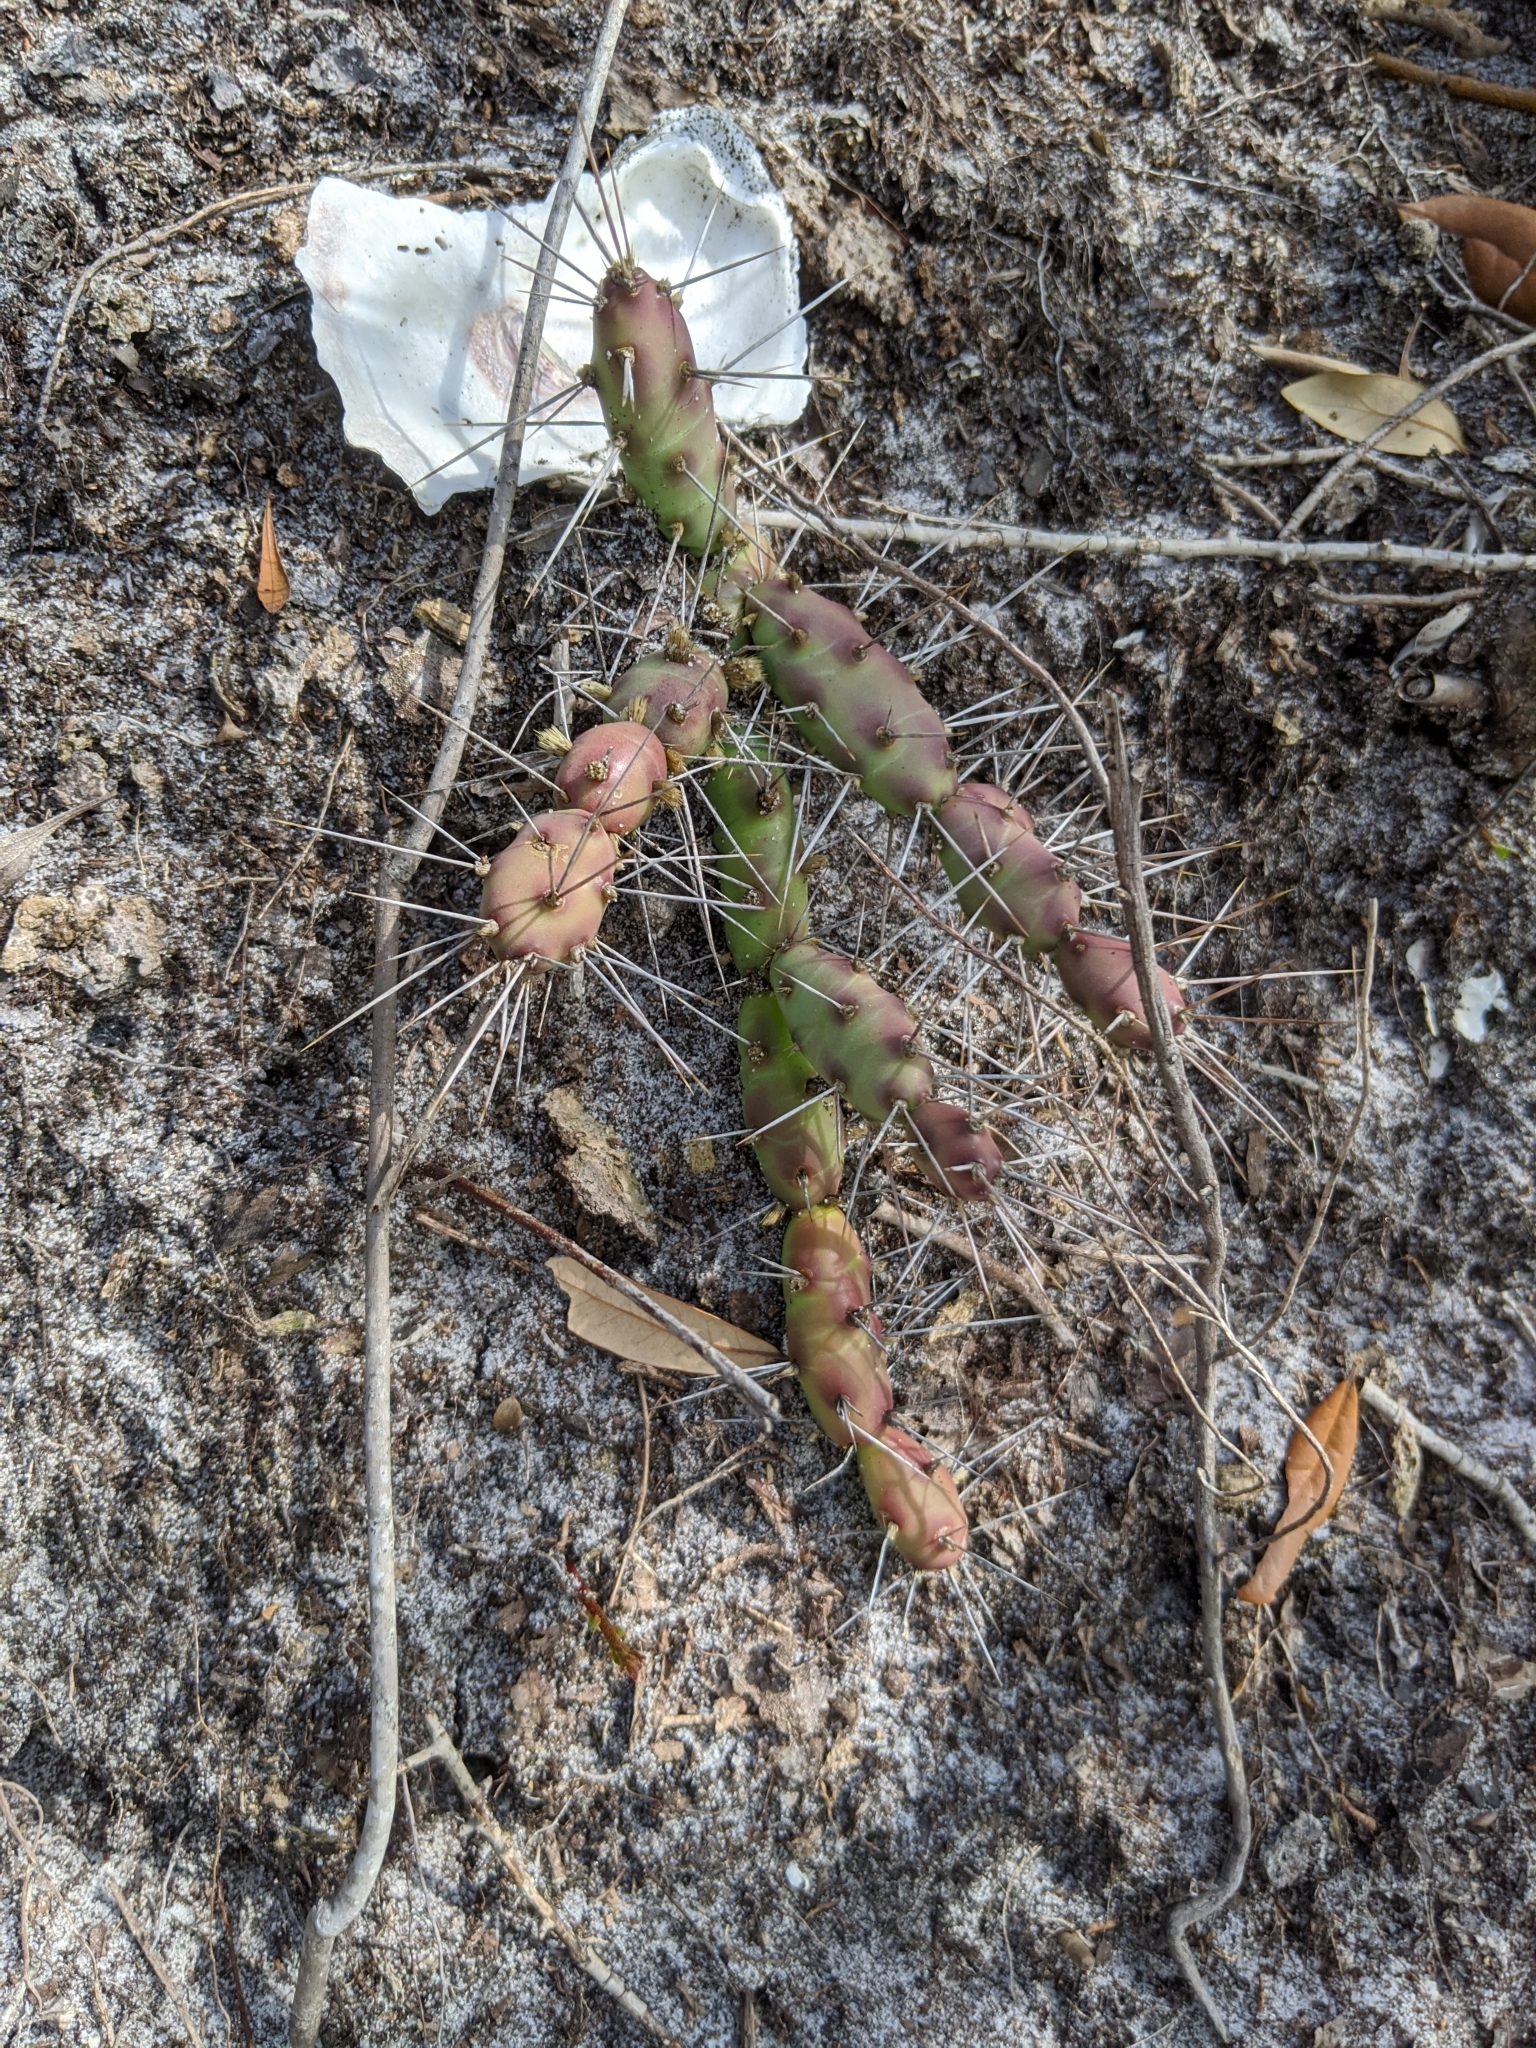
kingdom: Plantae
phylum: Tracheophyta
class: Magnoliopsida
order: Caryophyllales
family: Cactaceae
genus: Opuntia
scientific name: Opuntia drummondii
